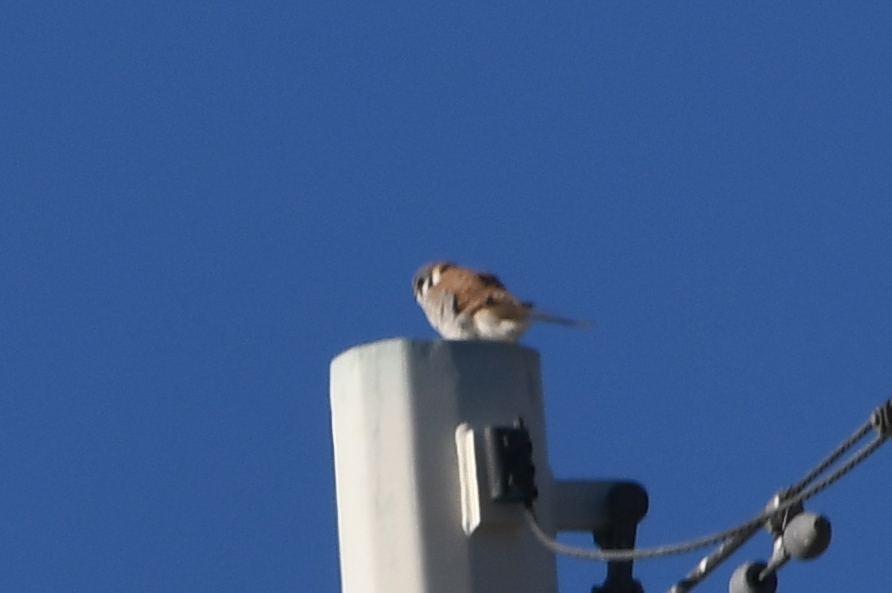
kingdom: Animalia
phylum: Chordata
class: Aves
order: Falconiformes
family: Falconidae
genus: Falco
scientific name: Falco sparverius
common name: American kestrel
